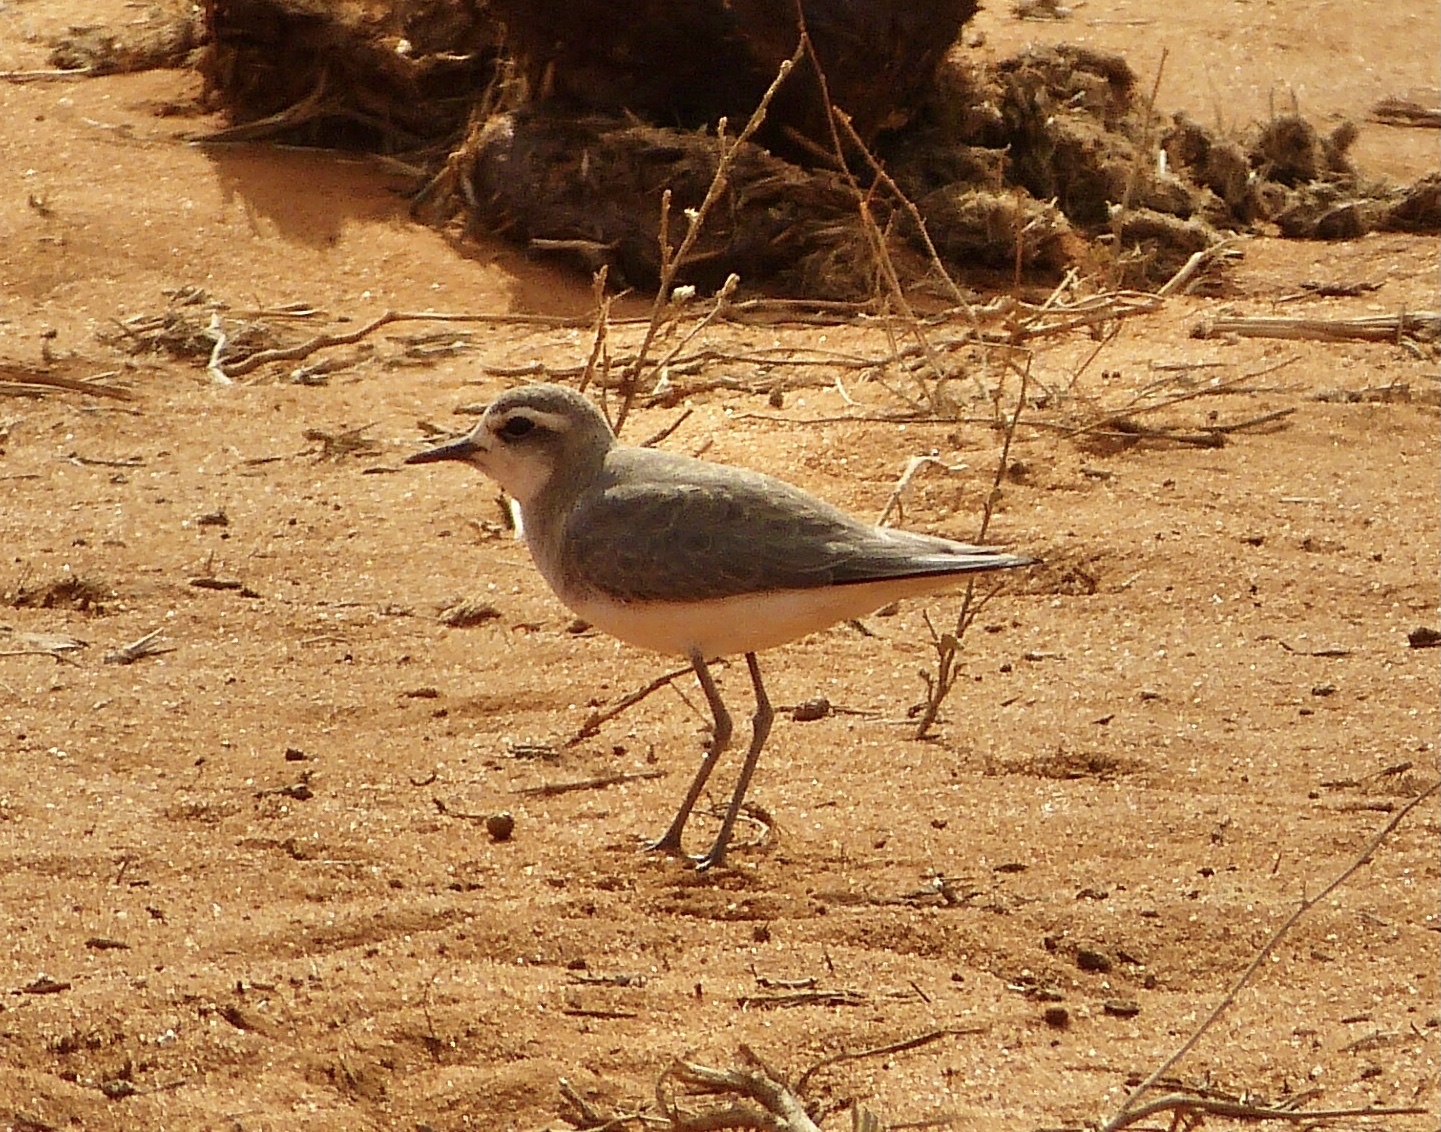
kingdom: Animalia
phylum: Chordata
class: Aves
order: Charadriiformes
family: Charadriidae
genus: Charadrius
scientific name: Charadrius asiaticus
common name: Caspian plover
